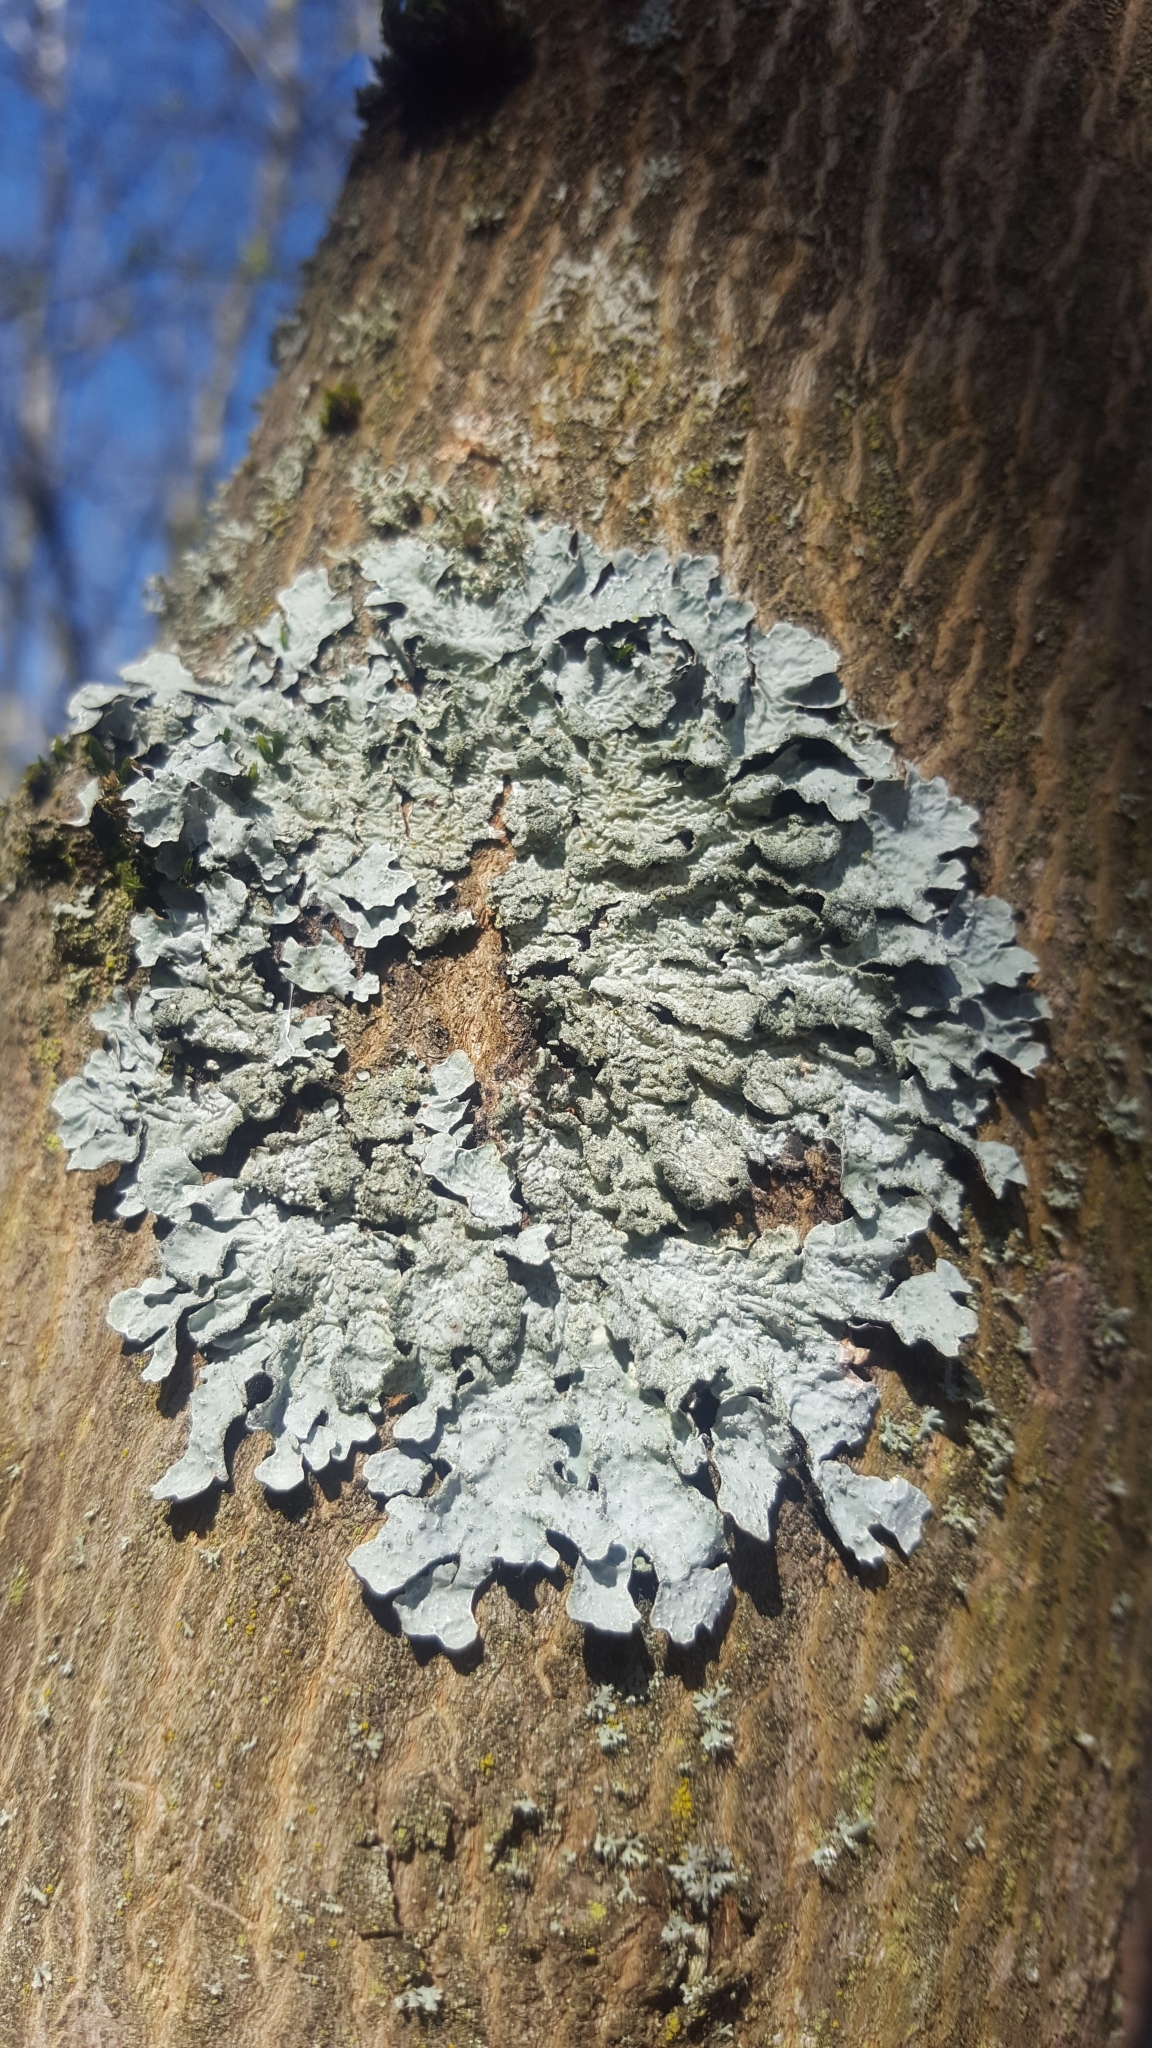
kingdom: Fungi
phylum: Ascomycota
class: Lecanoromycetes
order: Lecanorales
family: Parmeliaceae
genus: Parmelia
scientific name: Parmelia sulcata
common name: Netted shield lichen
